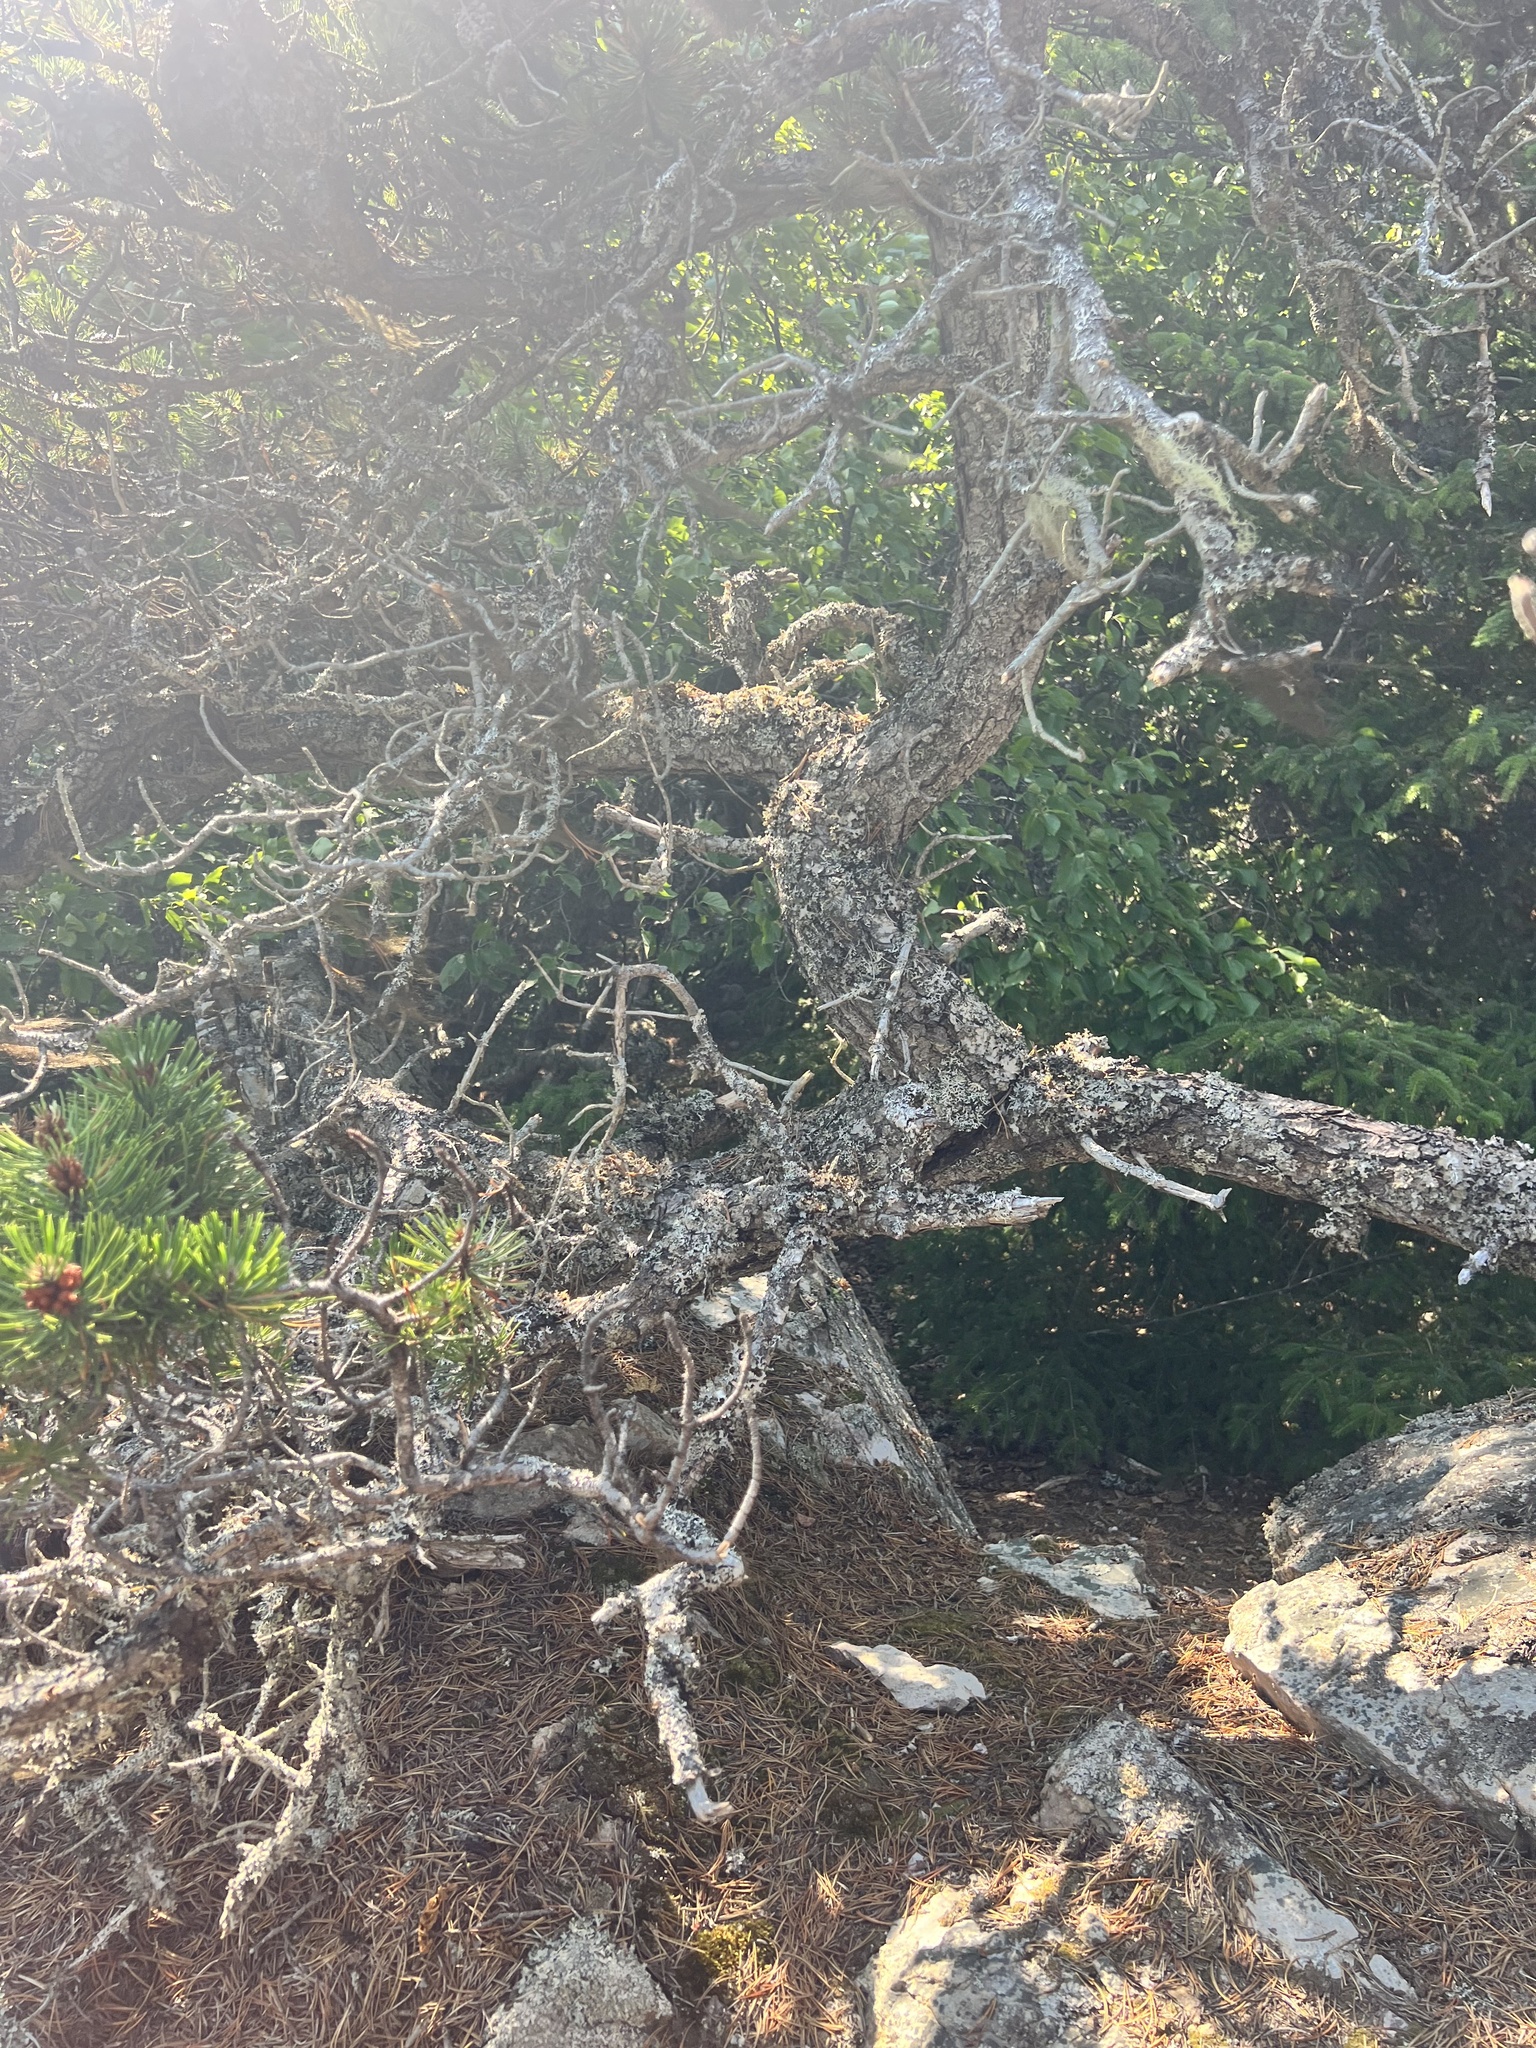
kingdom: Plantae
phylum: Tracheophyta
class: Pinopsida
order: Pinales
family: Pinaceae
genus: Pinus
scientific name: Pinus contorta
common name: Lodgepole pine
